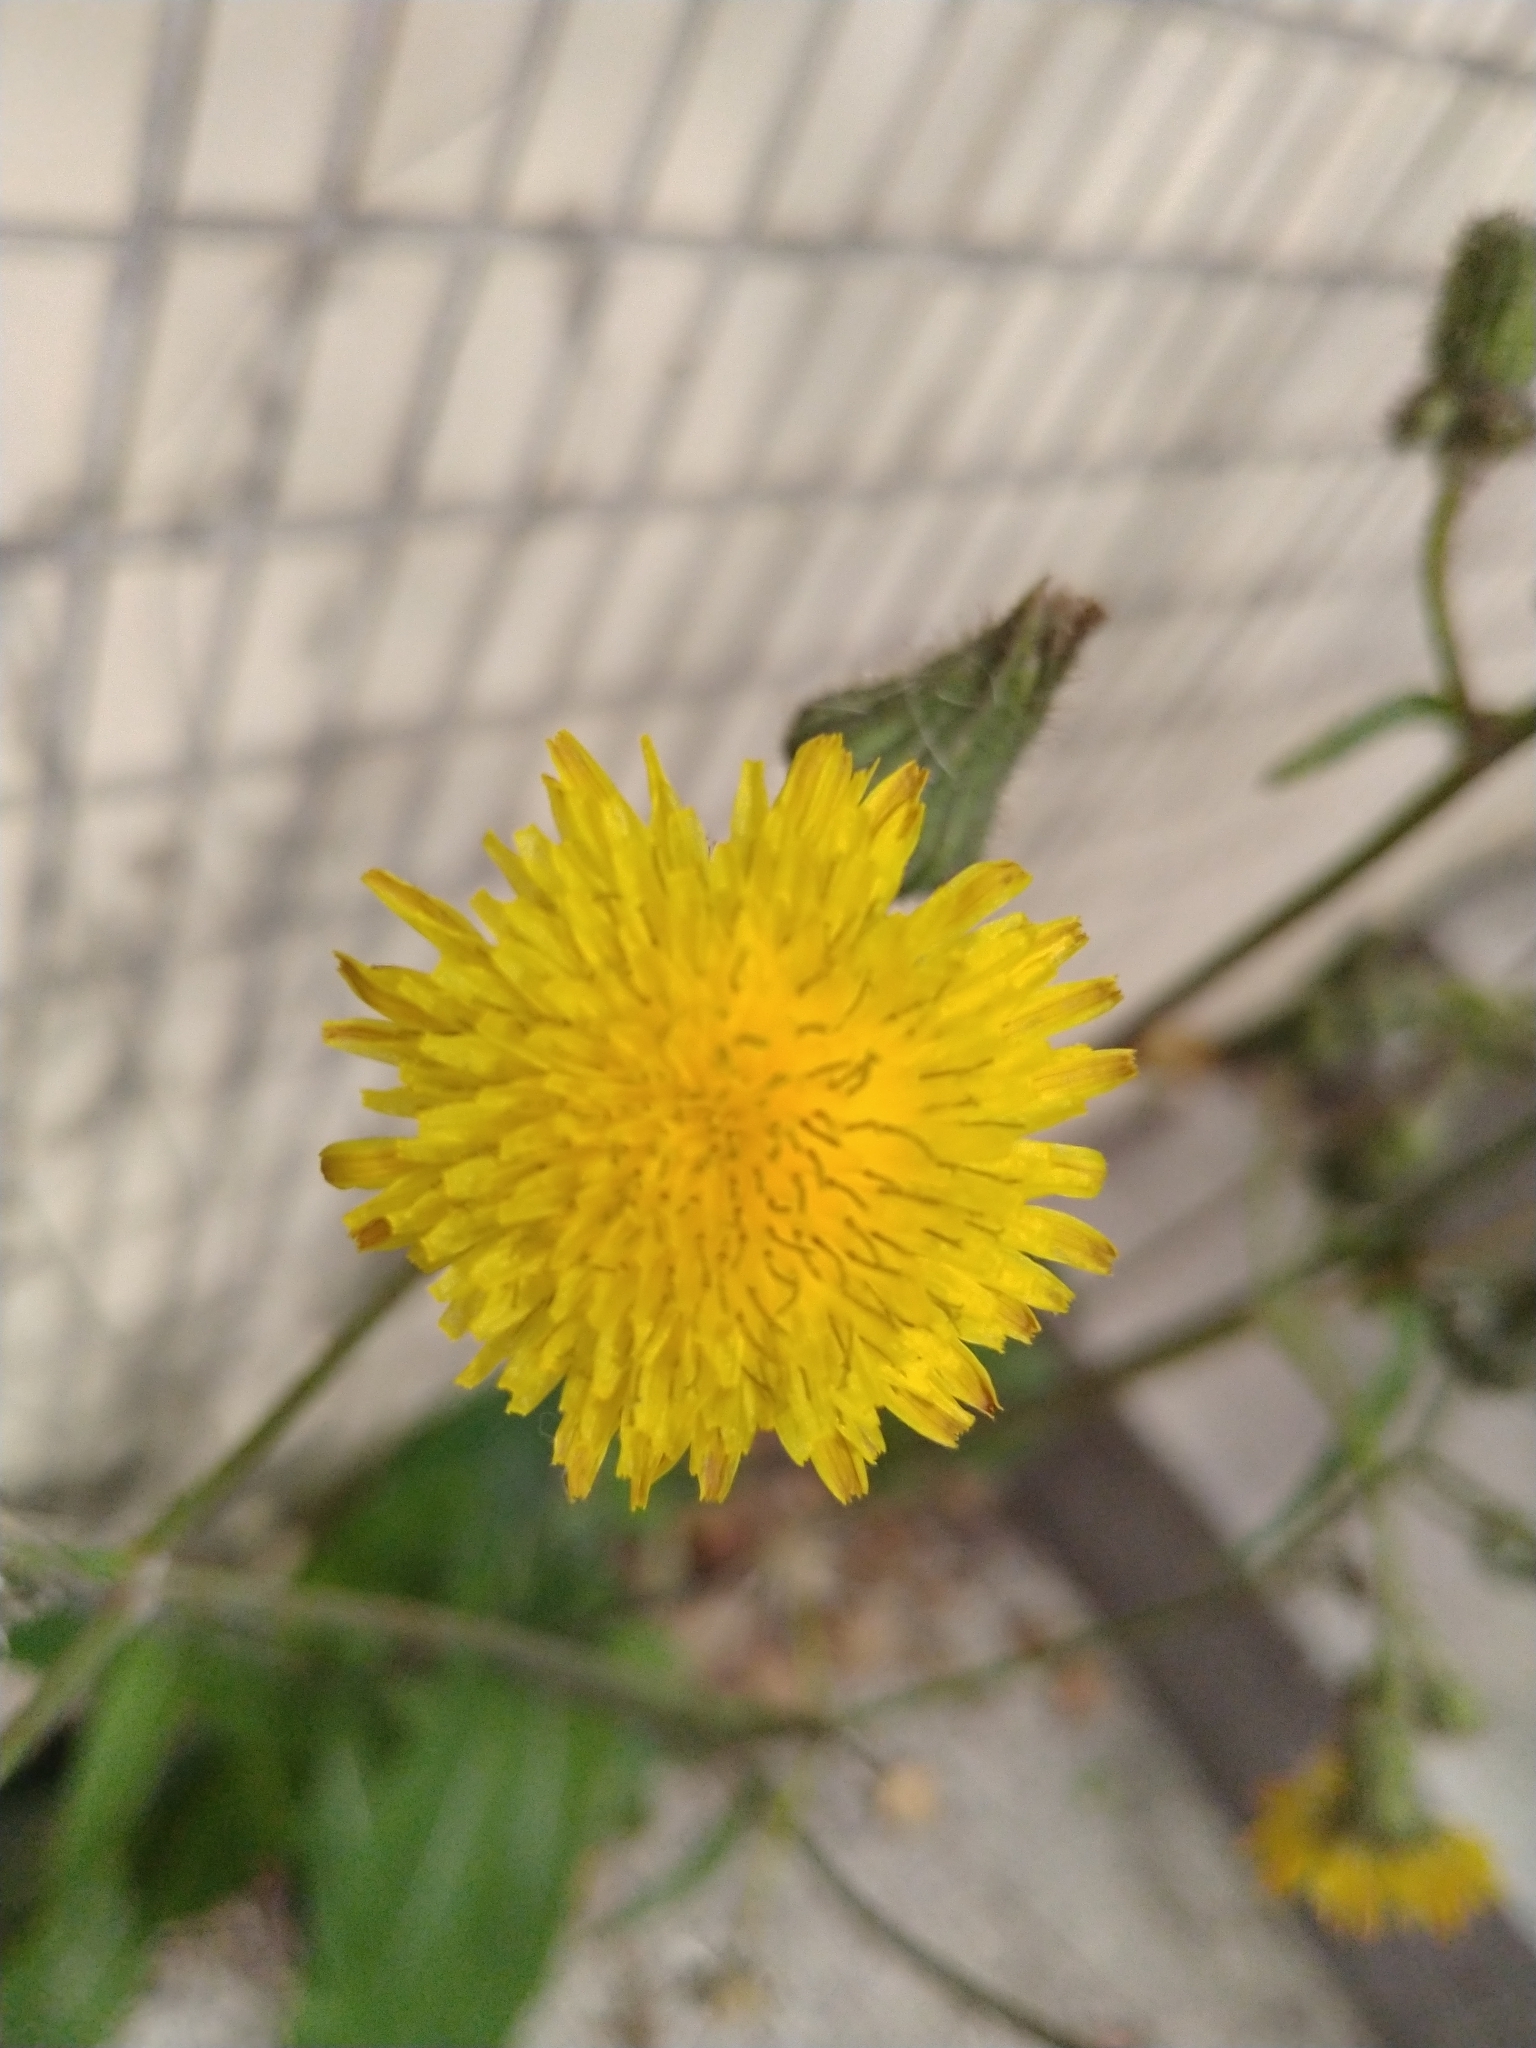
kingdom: Plantae
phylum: Tracheophyta
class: Magnoliopsida
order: Asterales
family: Asteraceae
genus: Sonchus
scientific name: Sonchus arvensis
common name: Perennial sow-thistle
